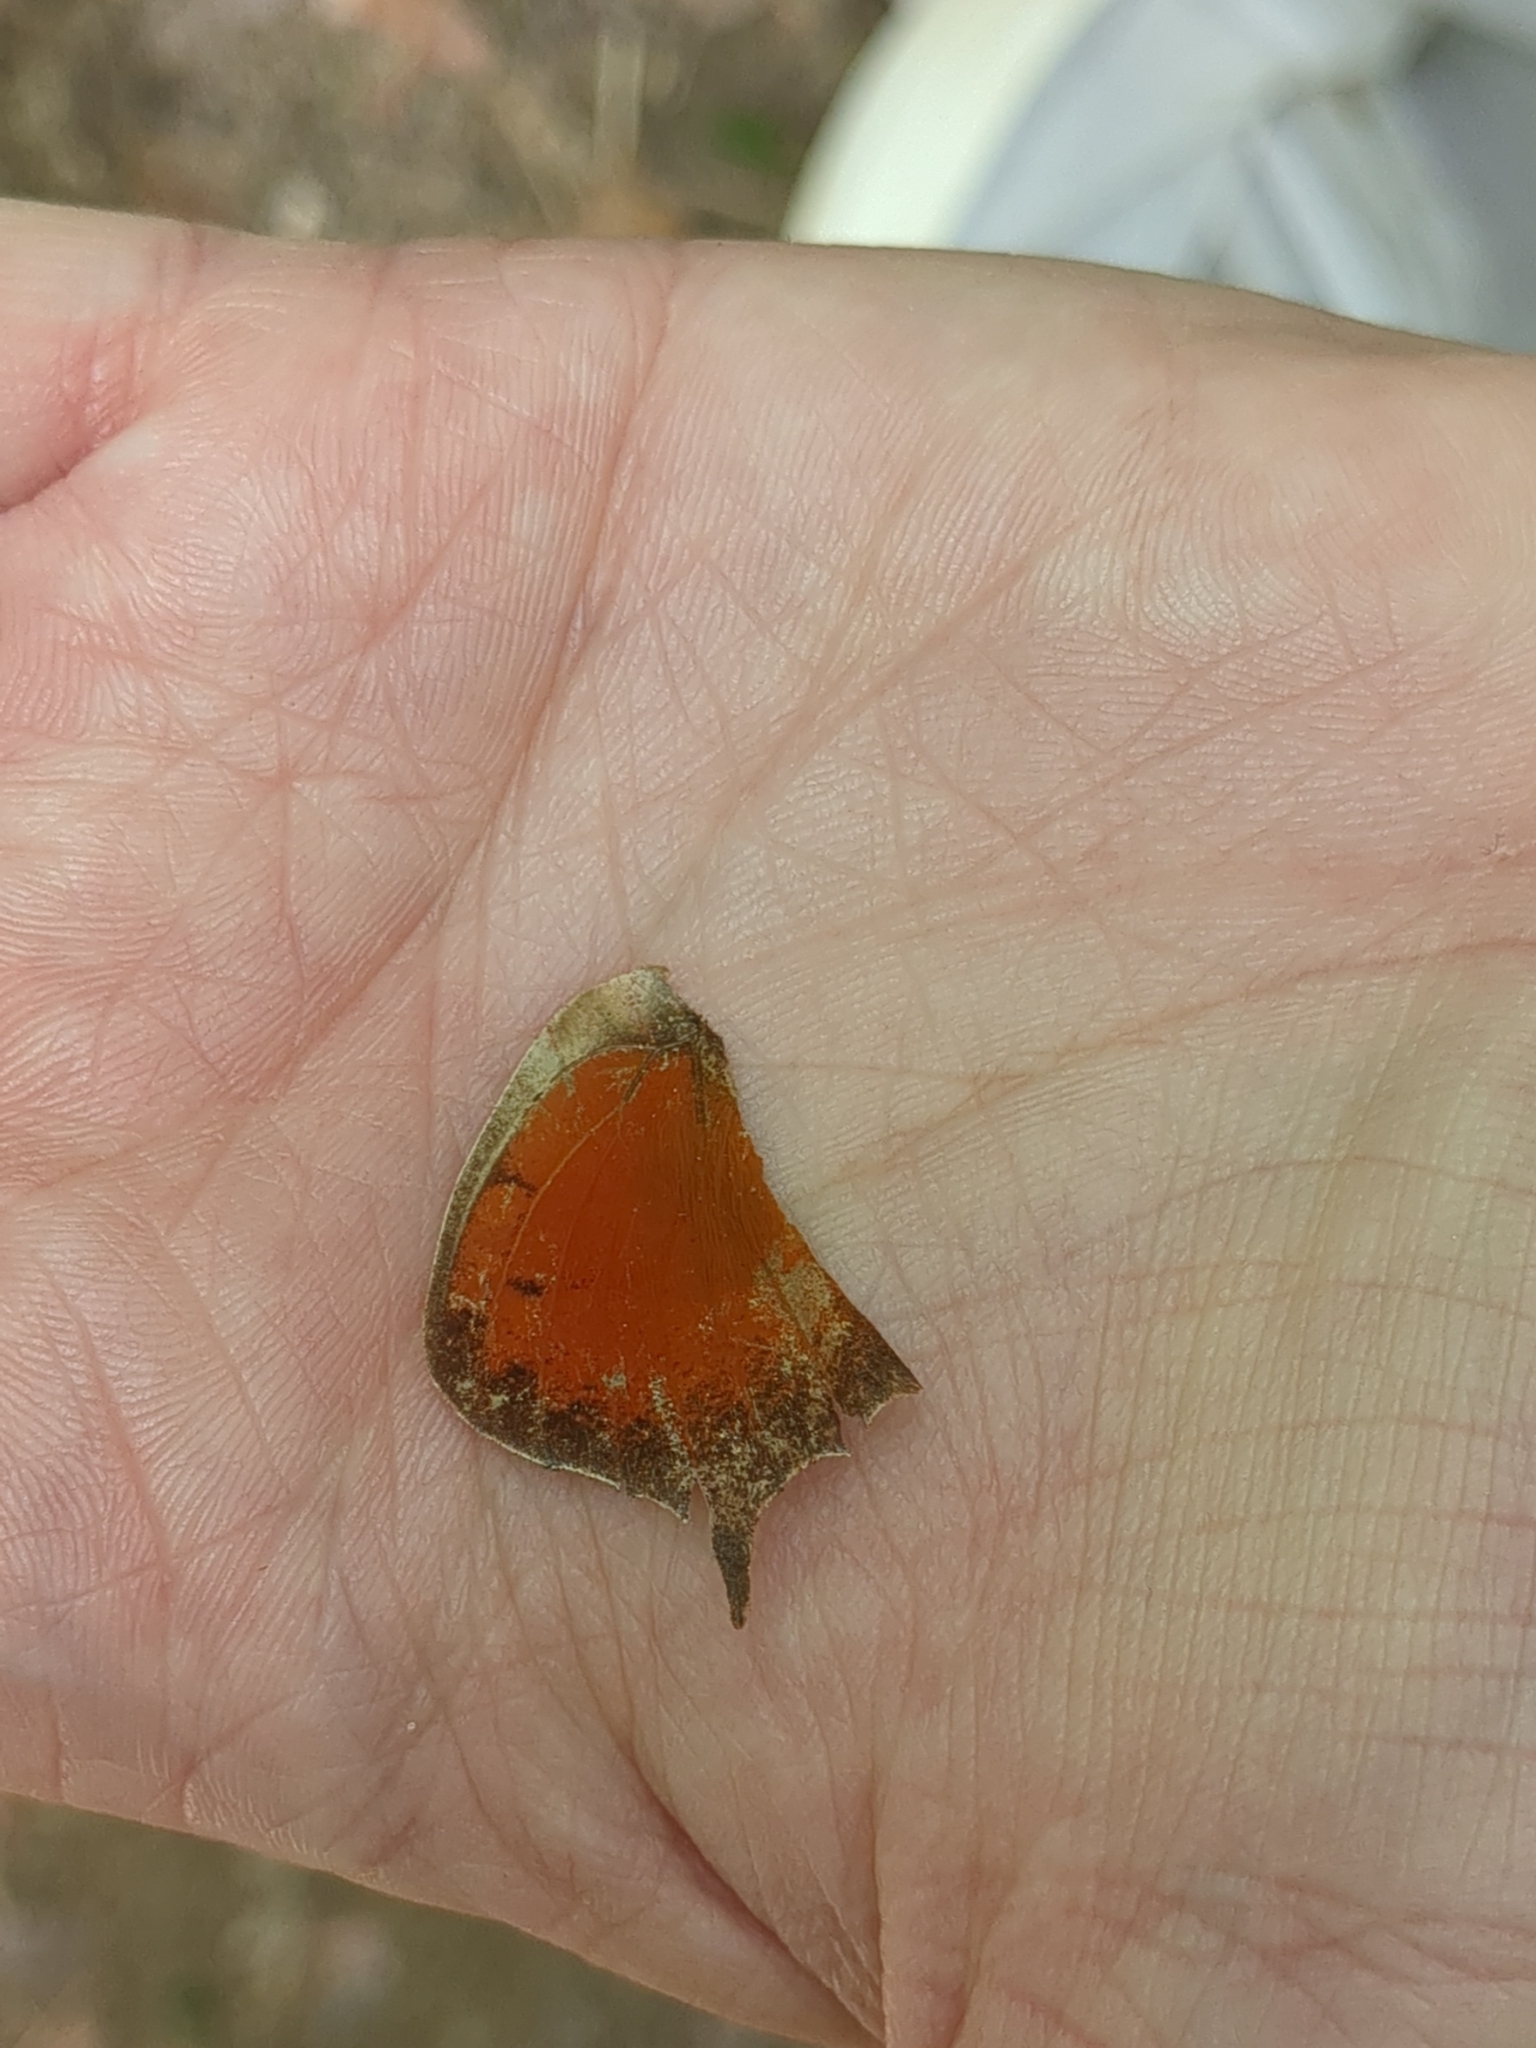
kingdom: Animalia
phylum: Arthropoda
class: Insecta
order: Lepidoptera
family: Nymphalidae
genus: Anaea
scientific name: Anaea andria
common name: Goatweed leafwing
